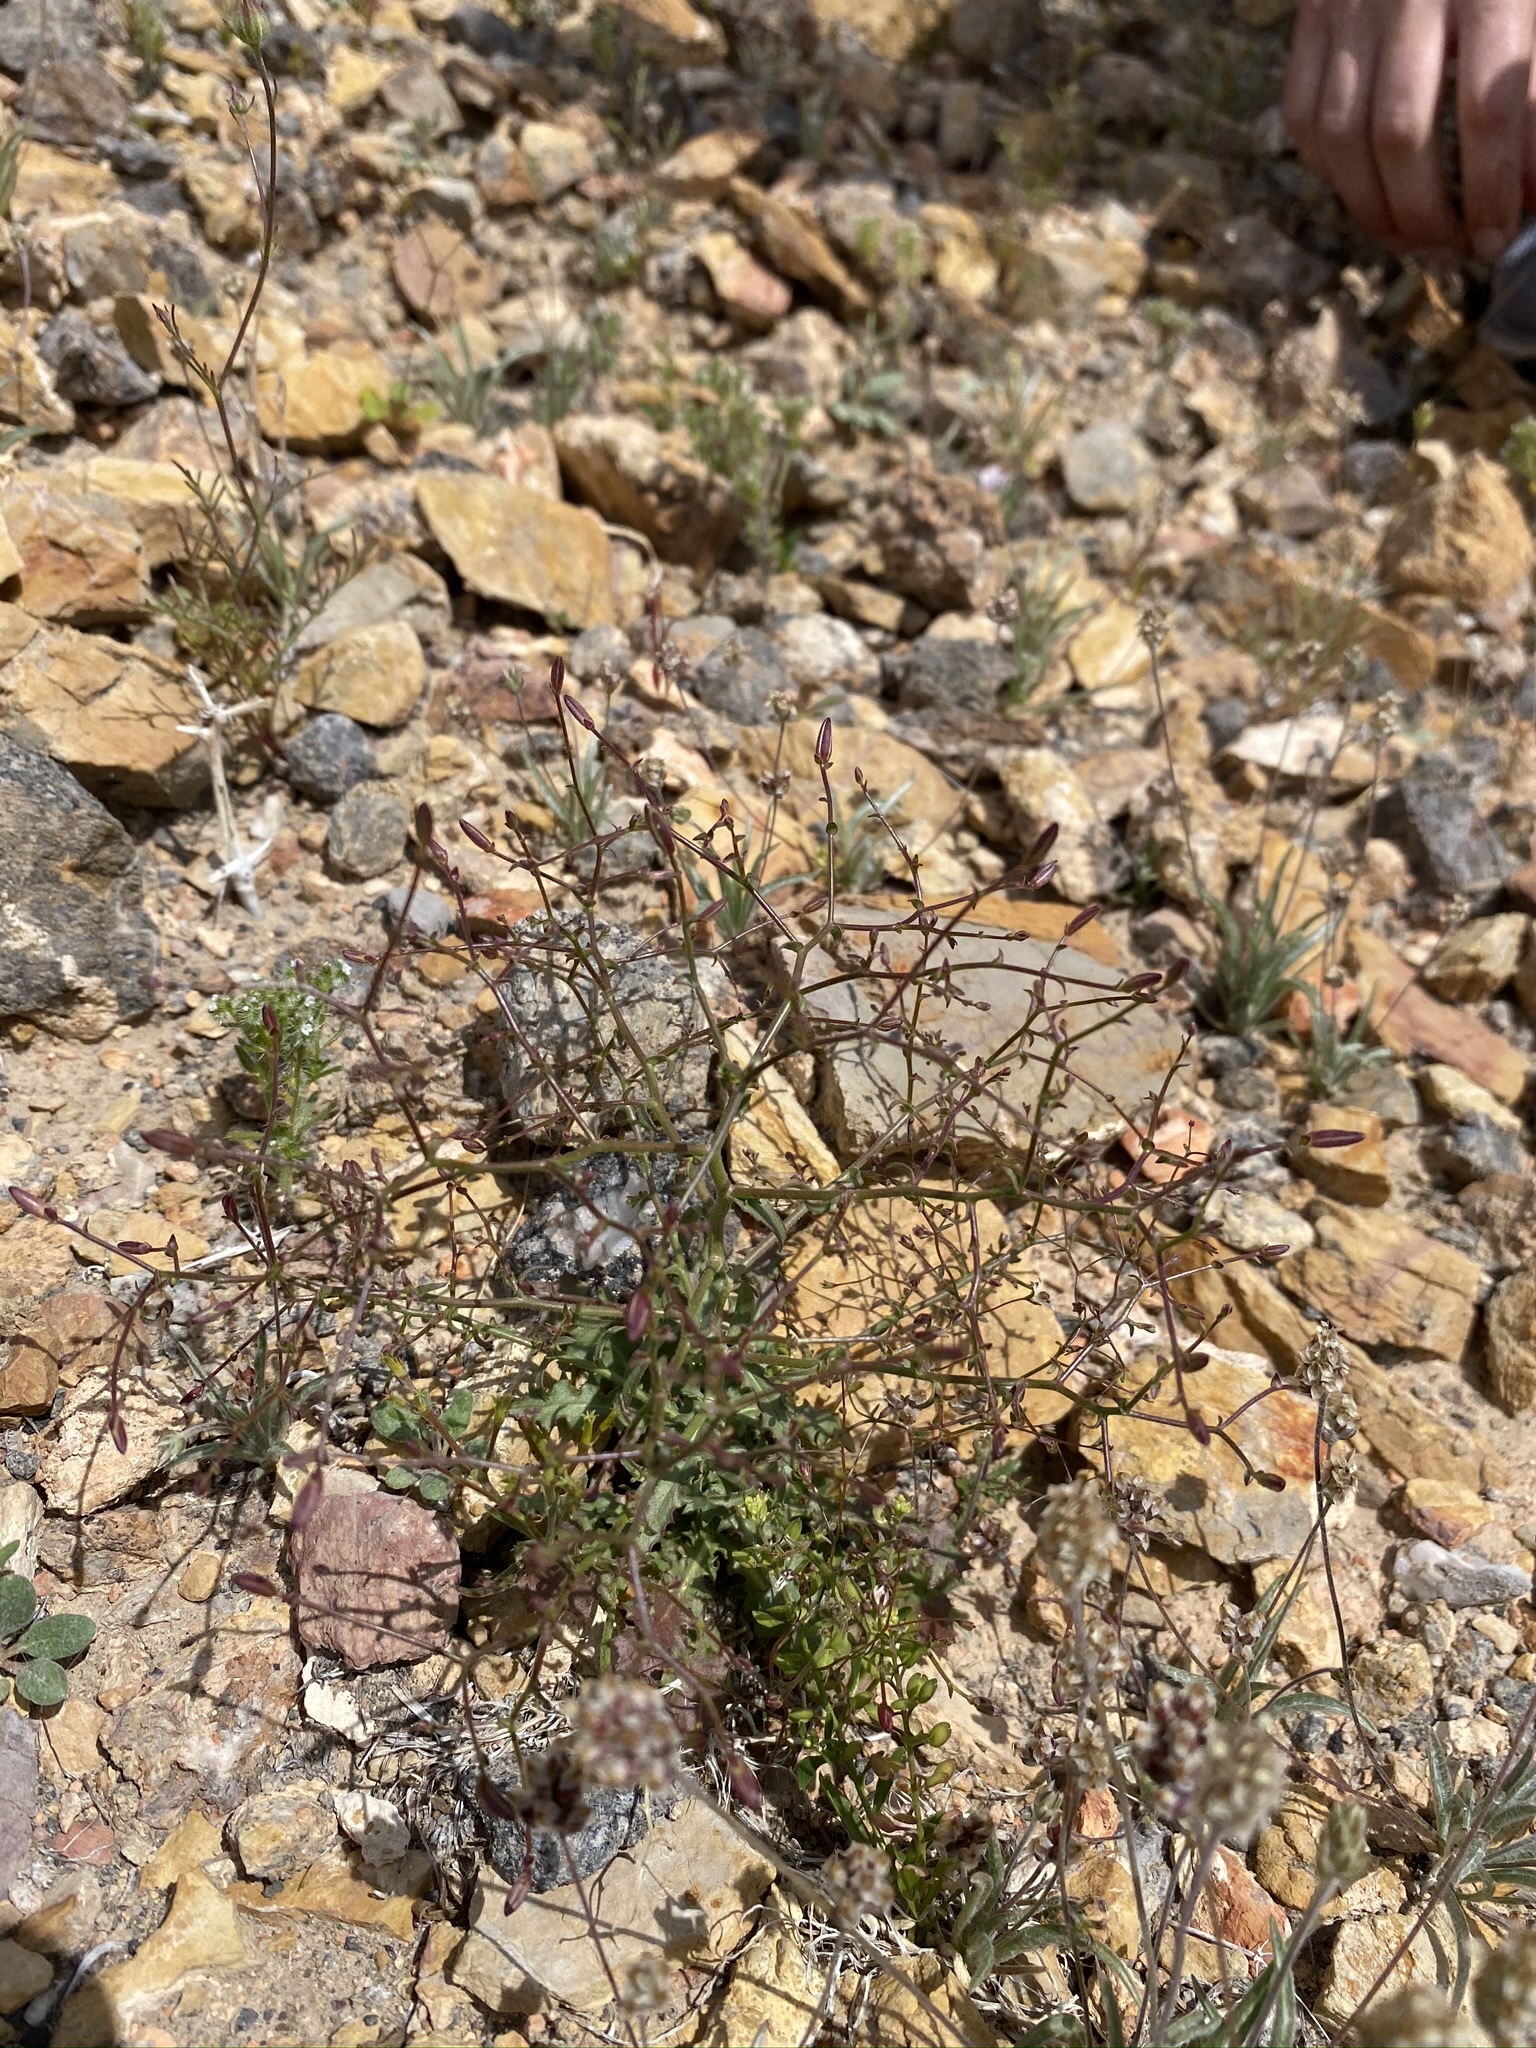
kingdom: Plantae
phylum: Tracheophyta
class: Magnoliopsida
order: Asterales
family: Asteraceae
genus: Lygodesmia
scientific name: Lygodesmia exigua
